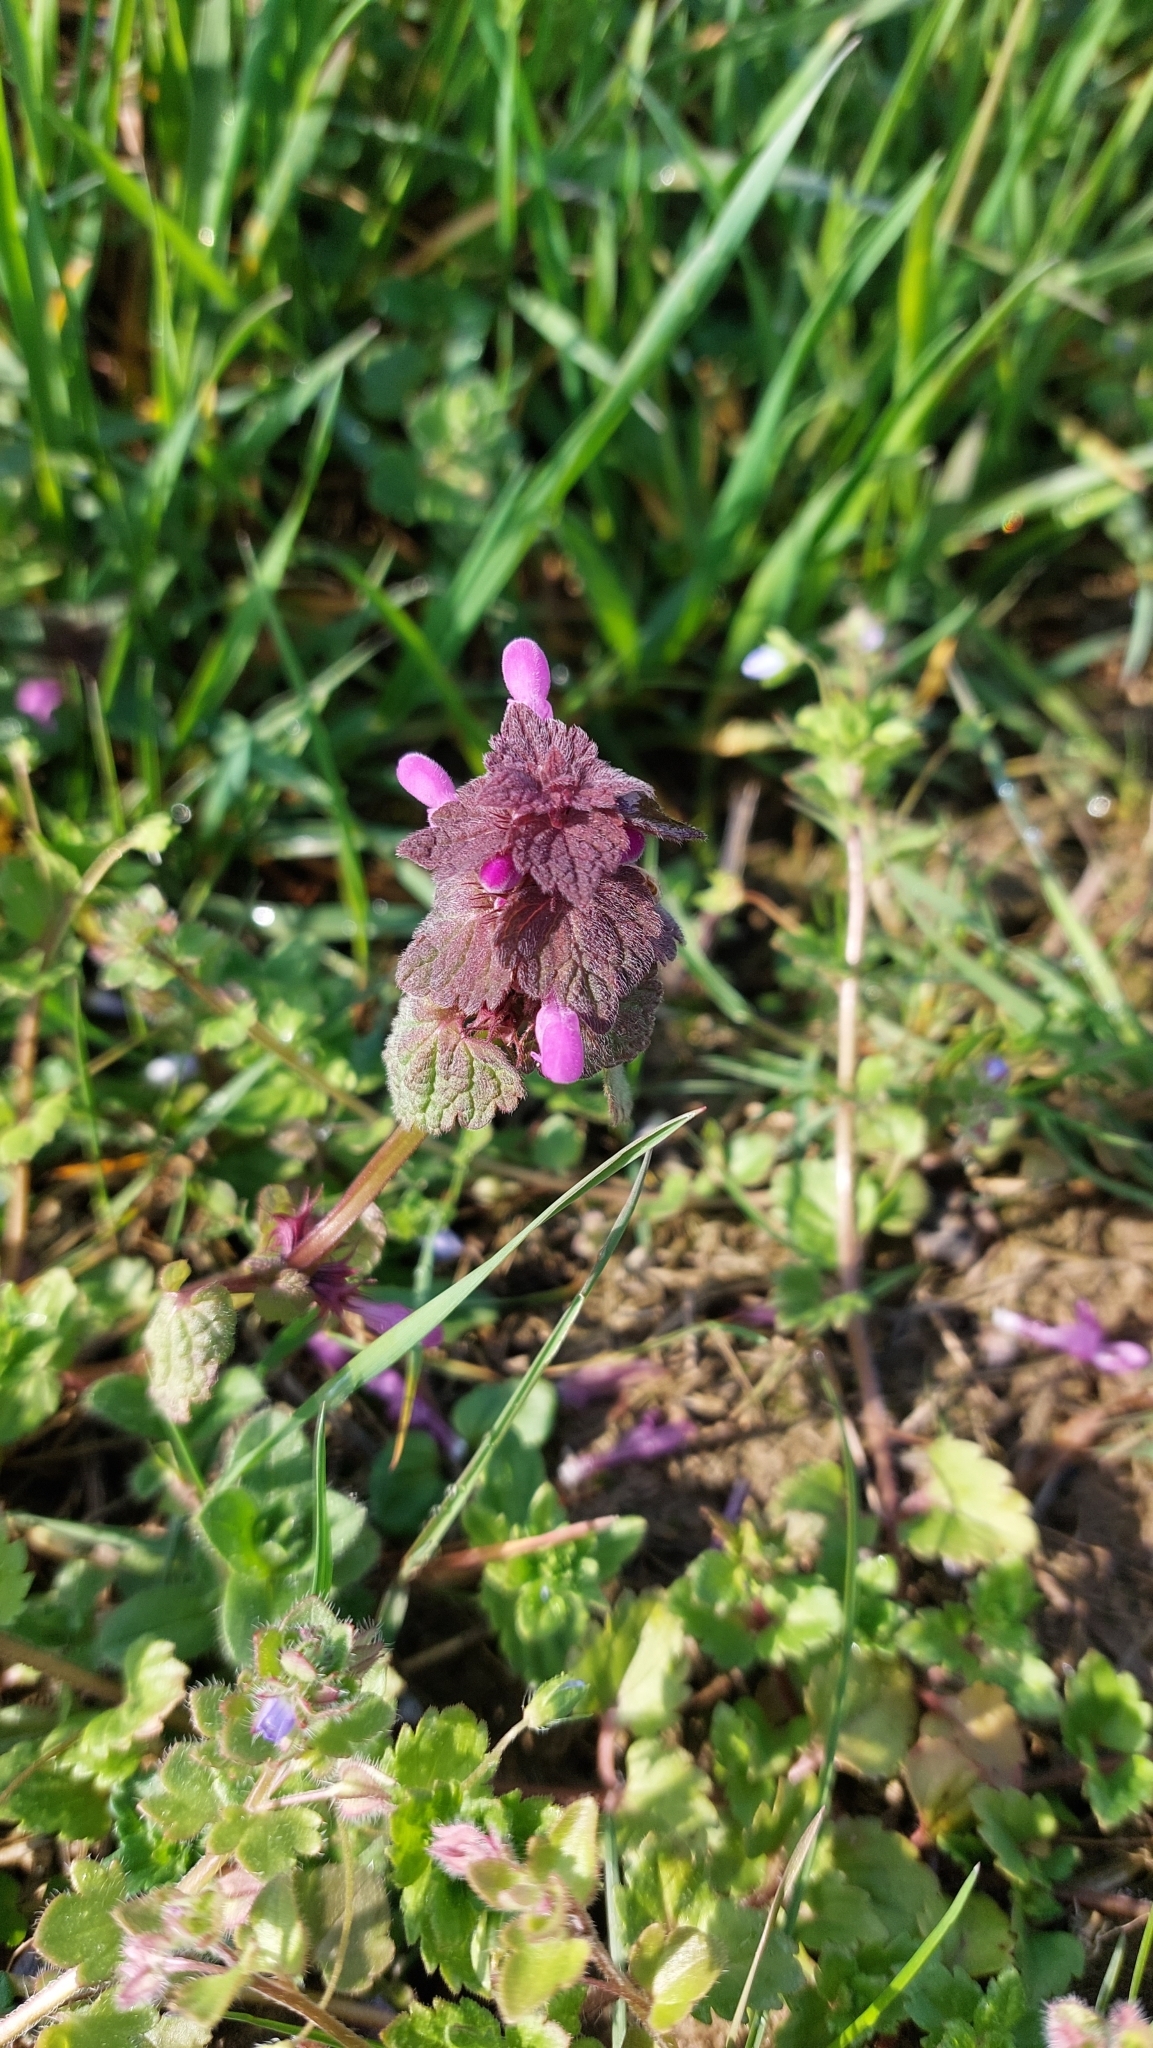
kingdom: Plantae
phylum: Tracheophyta
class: Magnoliopsida
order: Lamiales
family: Lamiaceae
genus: Lamium
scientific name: Lamium purpureum
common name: Red dead-nettle
